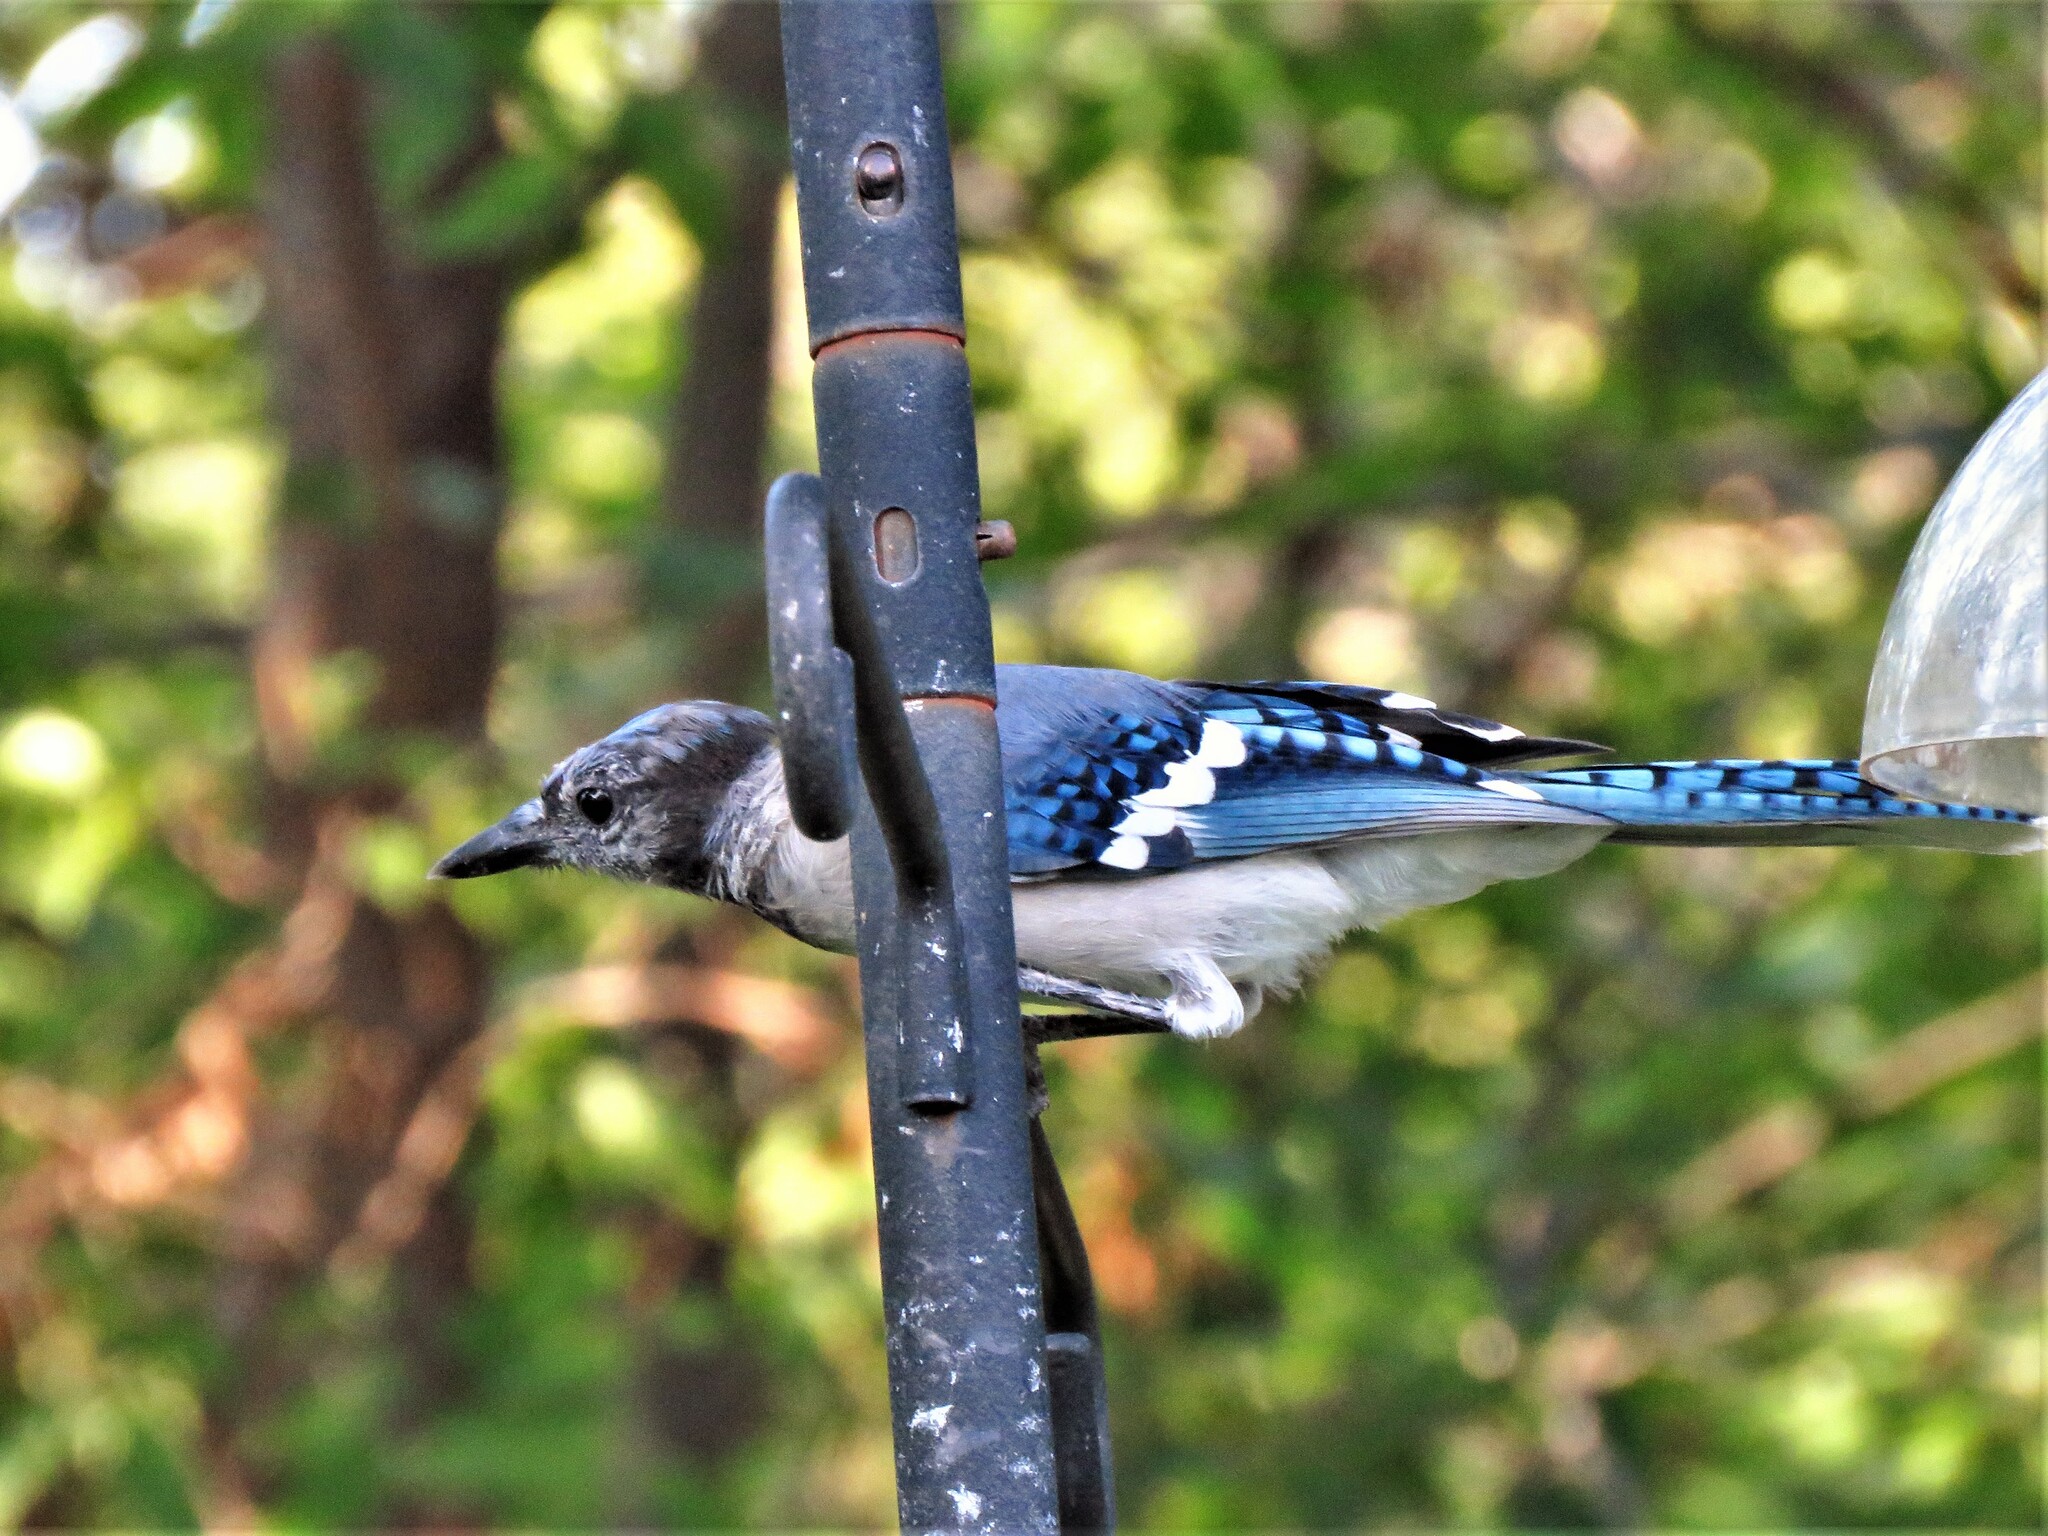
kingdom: Animalia
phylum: Chordata
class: Aves
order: Passeriformes
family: Corvidae
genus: Cyanocitta
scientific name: Cyanocitta cristata
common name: Blue jay
